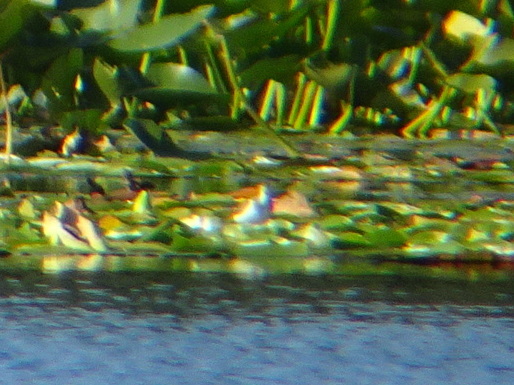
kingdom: Animalia
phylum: Chordata
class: Aves
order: Charadriiformes
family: Scolopacidae
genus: Actitis
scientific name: Actitis macularius
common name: Spotted sandpiper
